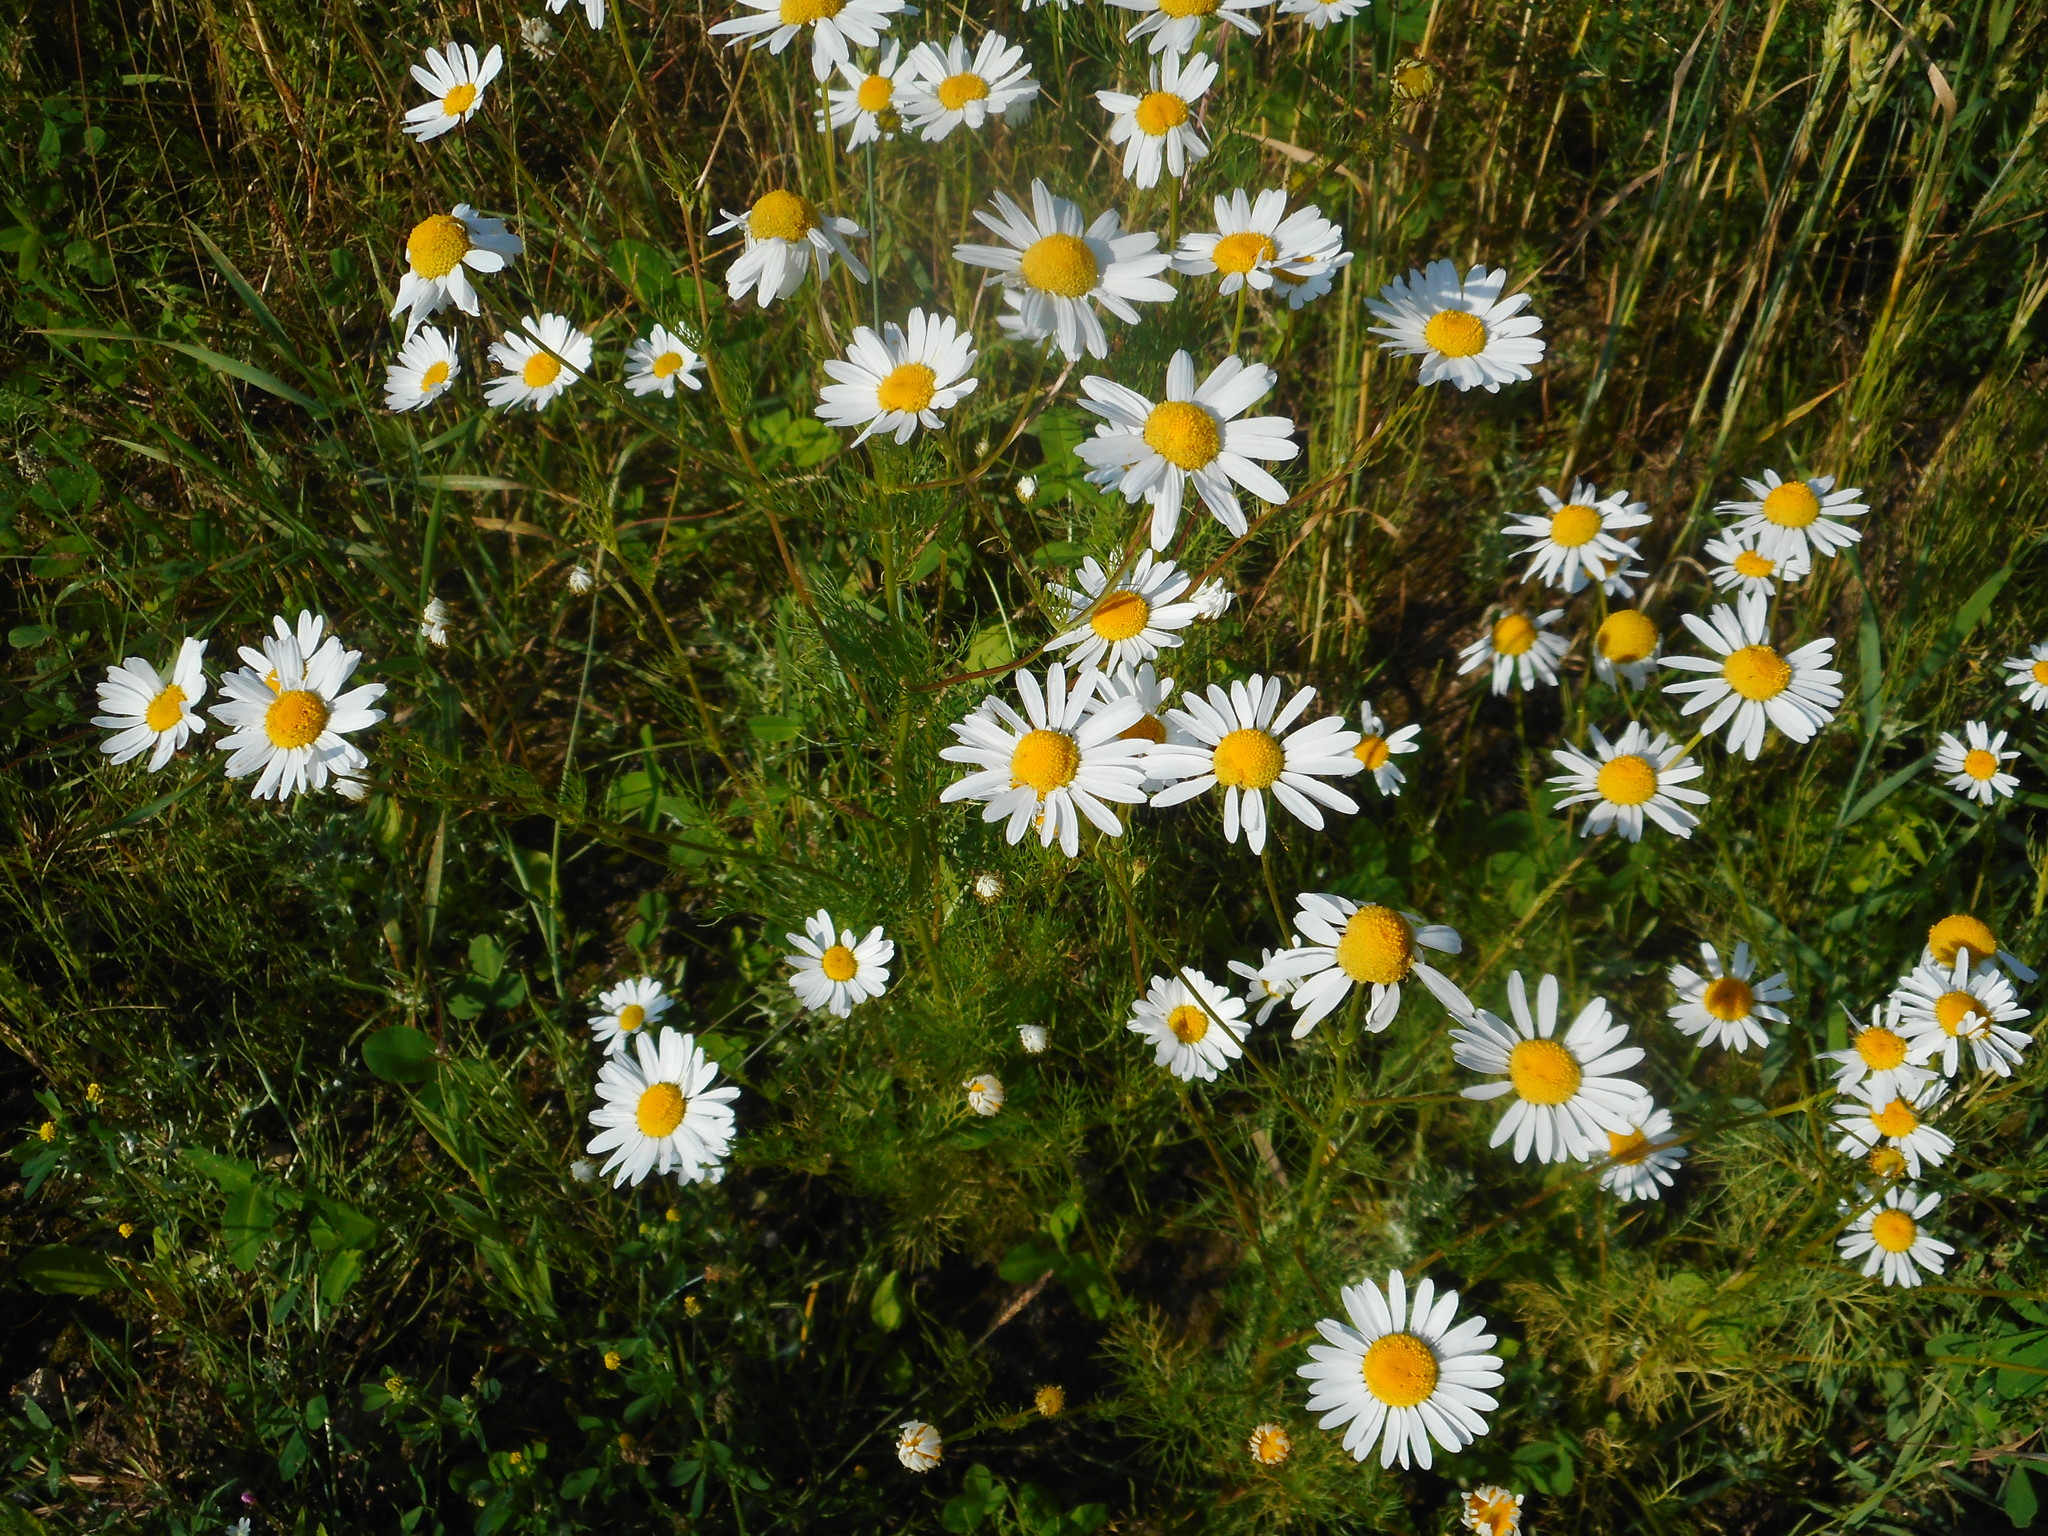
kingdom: Plantae
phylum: Tracheophyta
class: Magnoliopsida
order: Asterales
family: Asteraceae
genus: Tripleurospermum
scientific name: Tripleurospermum inodorum
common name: Scentless mayweed
